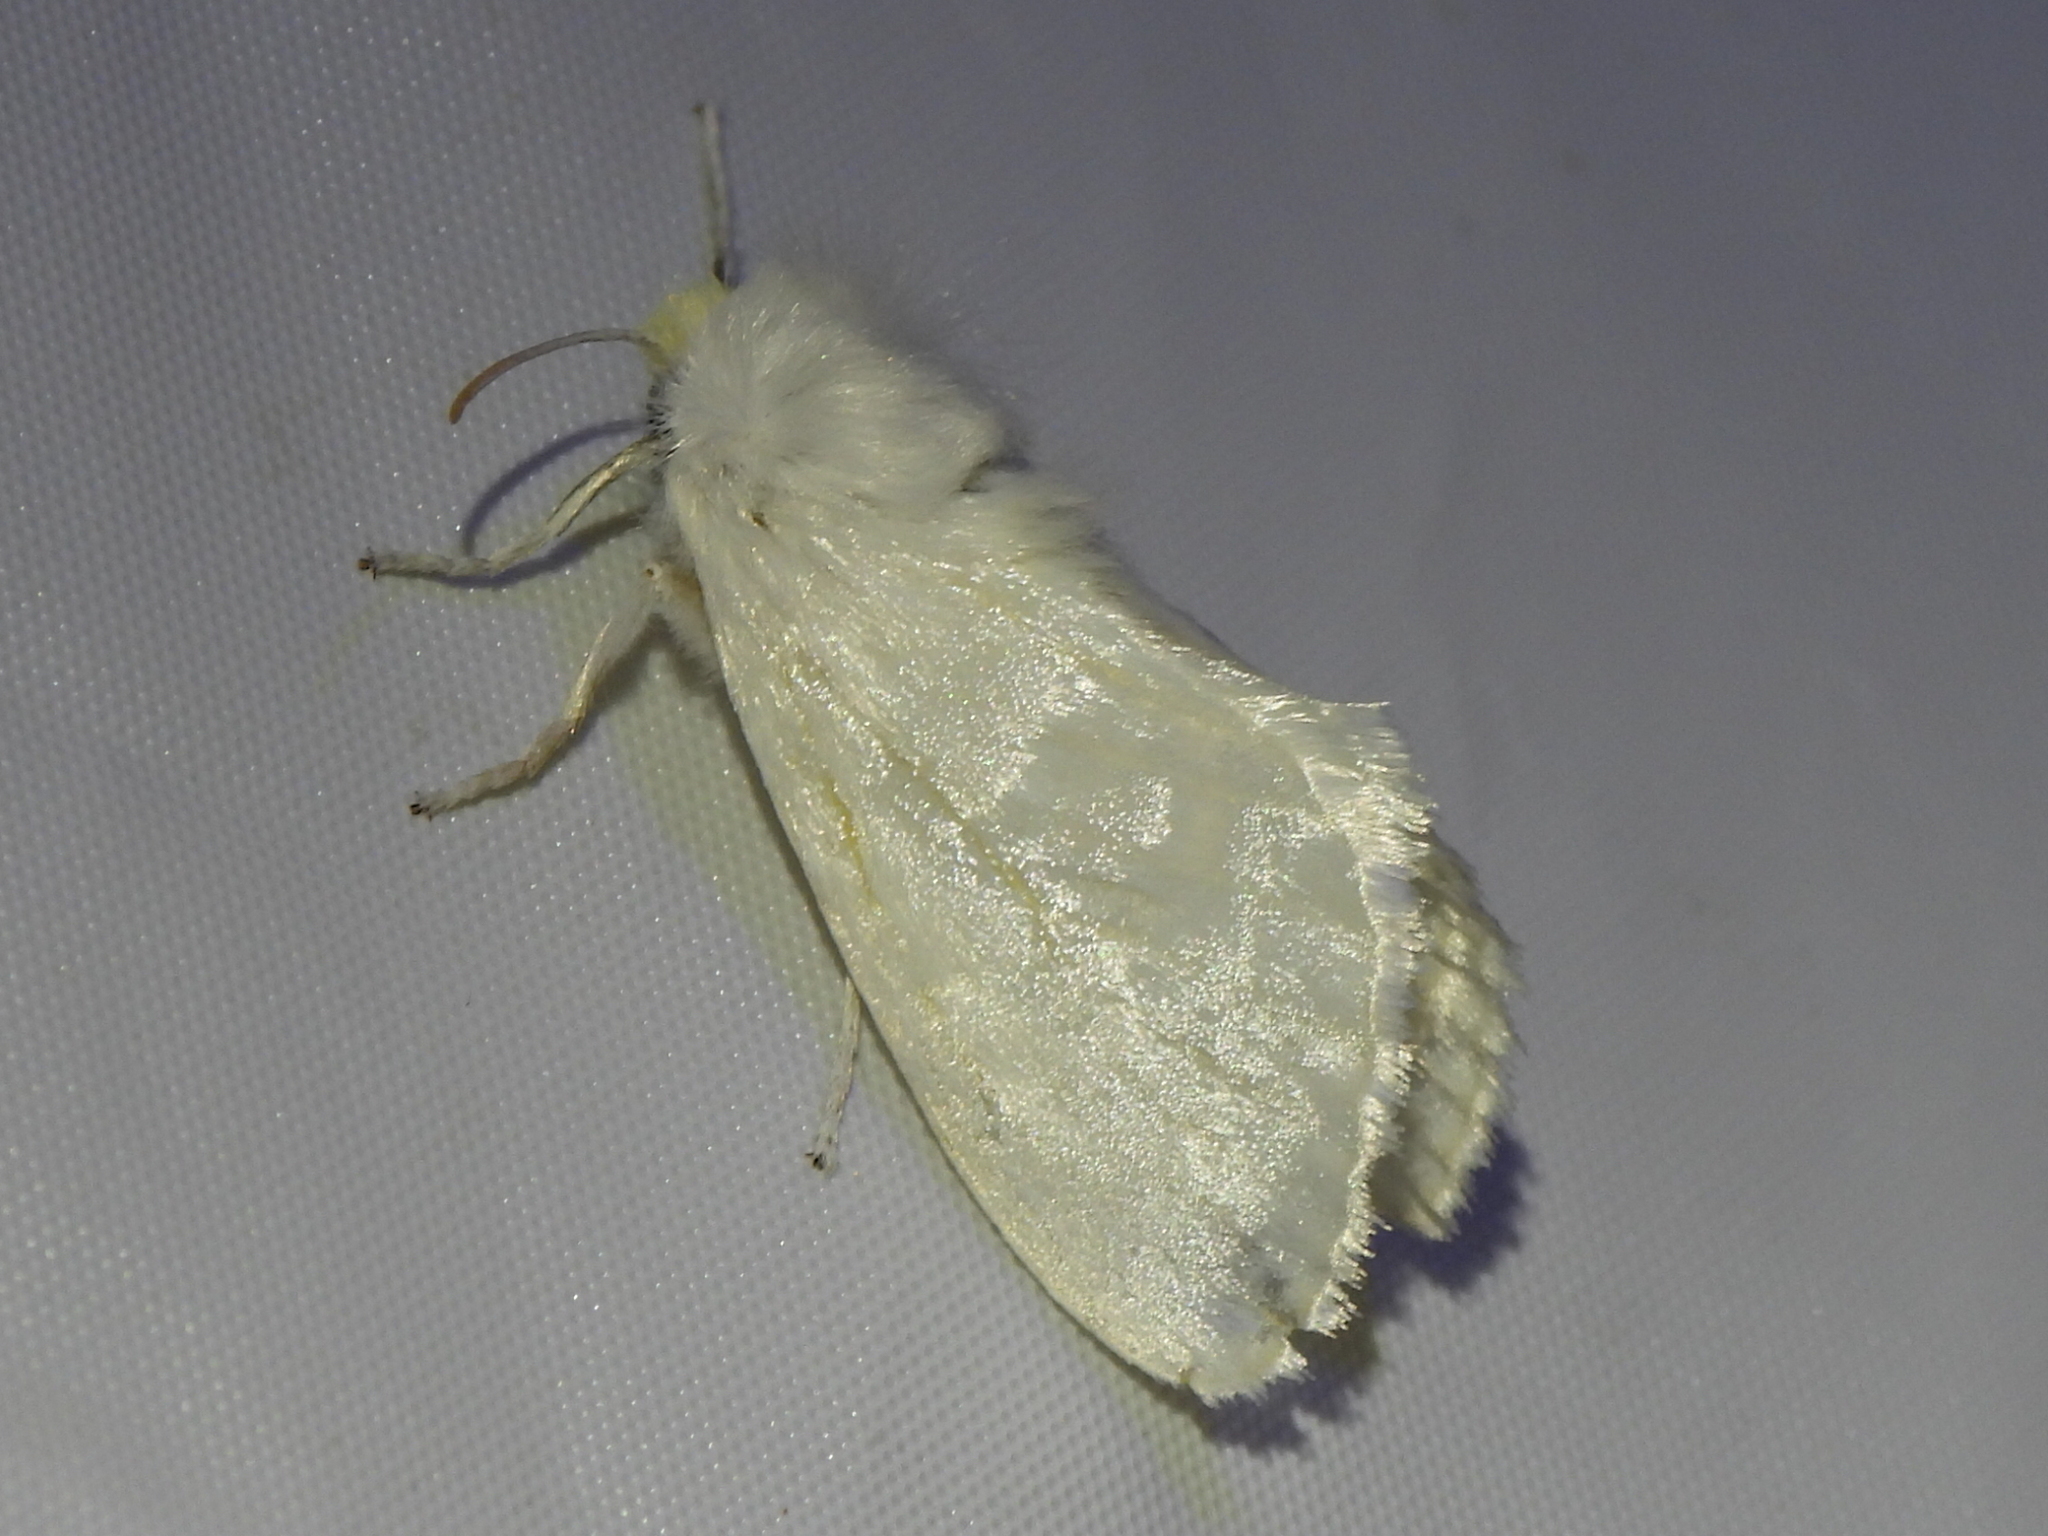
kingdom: Animalia
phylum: Arthropoda
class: Insecta
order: Lepidoptera
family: Megalopygidae
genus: Norape
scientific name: Norape cretata
